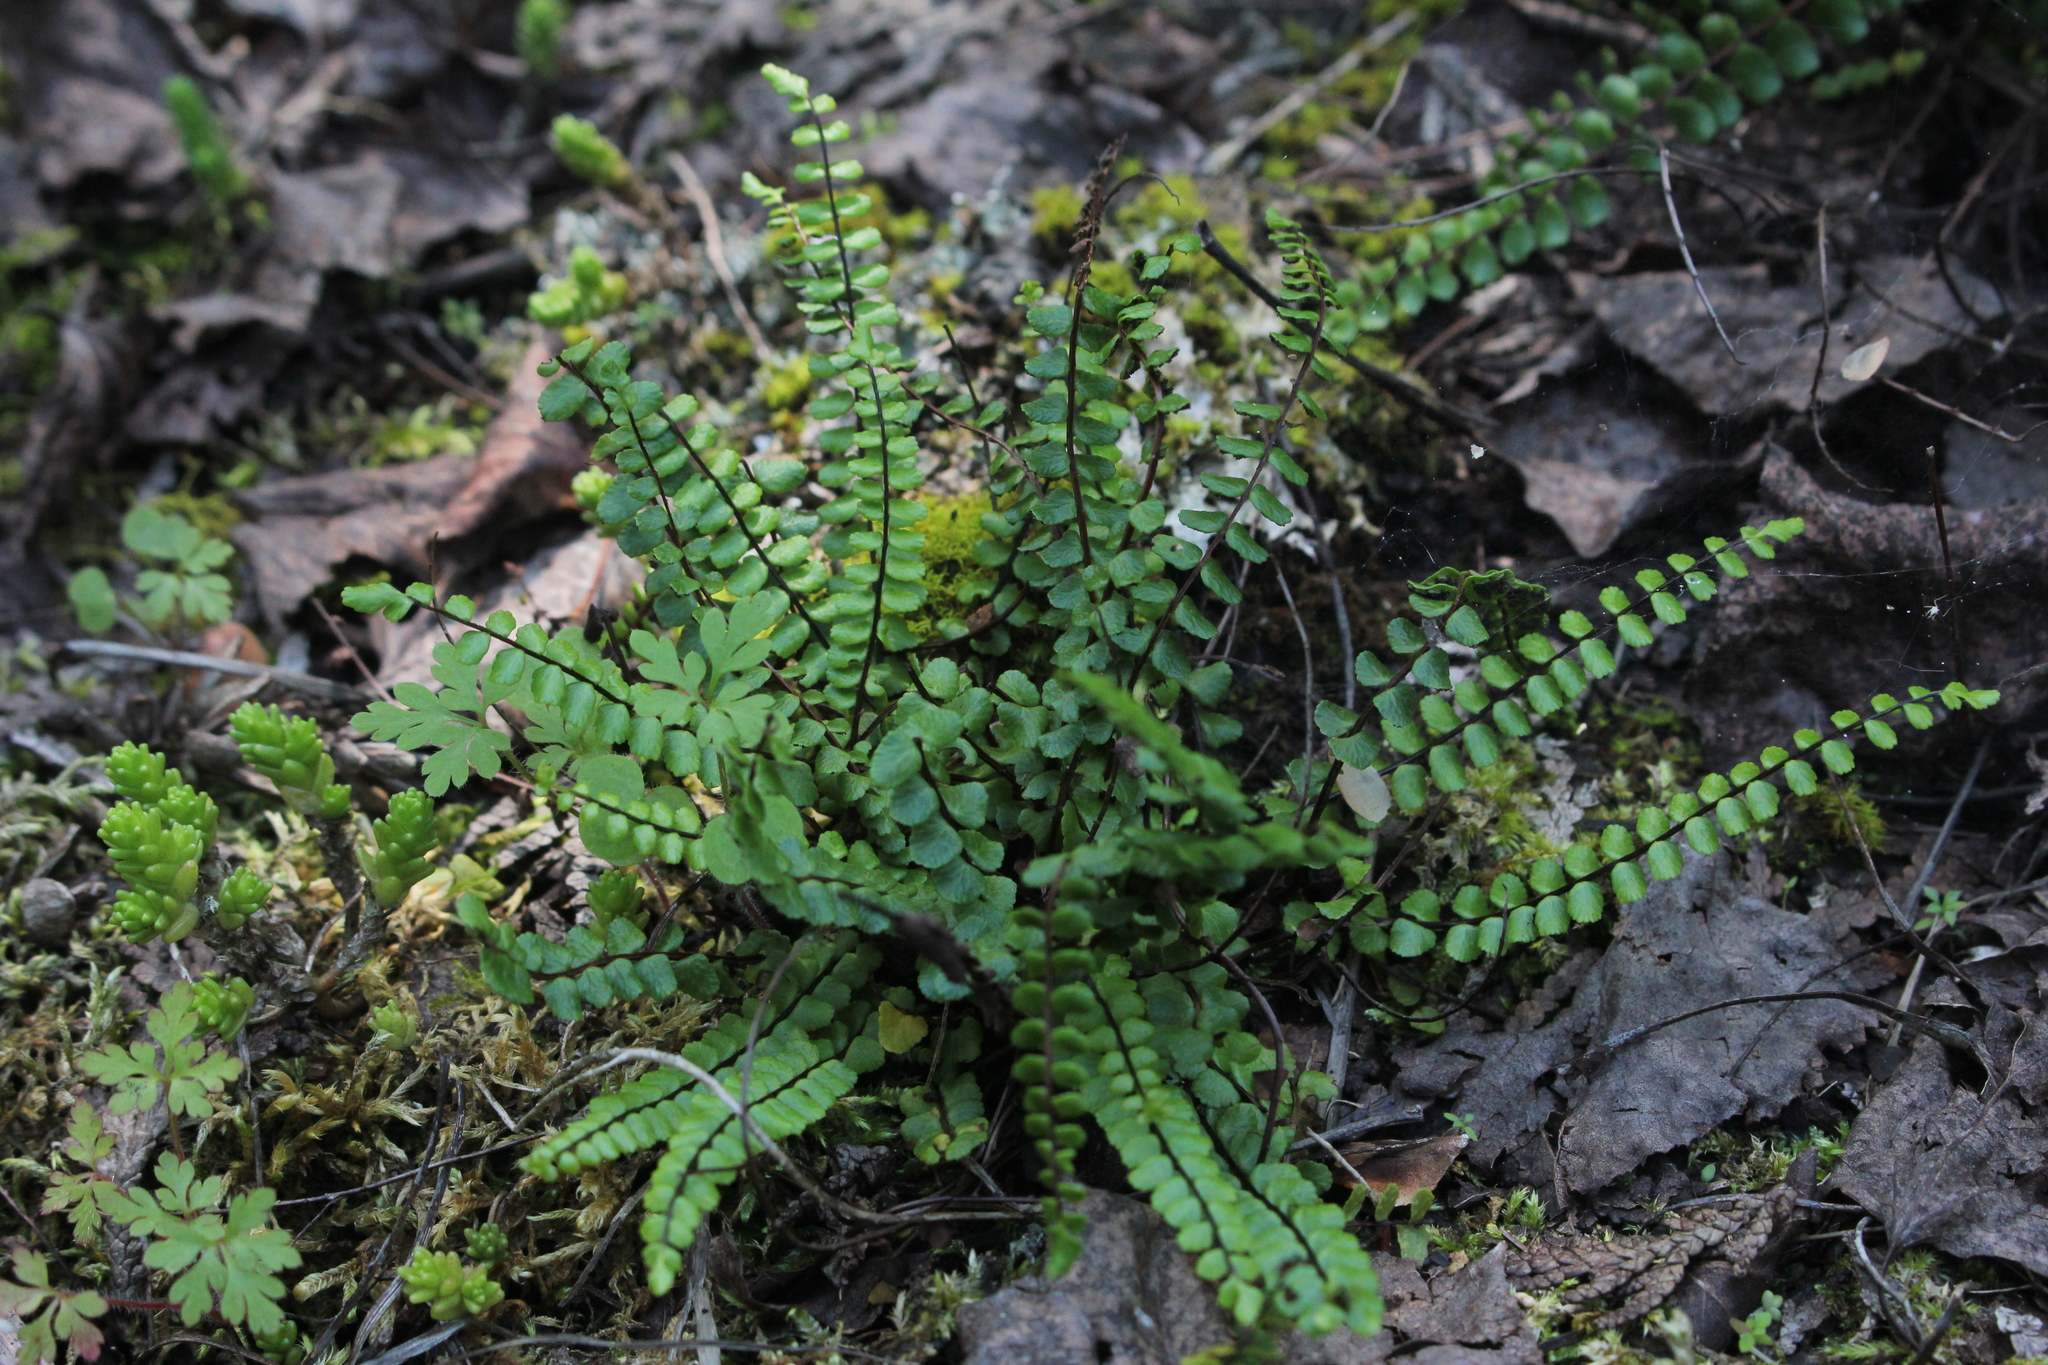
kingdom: Plantae
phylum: Tracheophyta
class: Polypodiopsida
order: Polypodiales
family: Aspleniaceae
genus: Asplenium
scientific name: Asplenium trichomanes
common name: Maidenhair spleenwort
